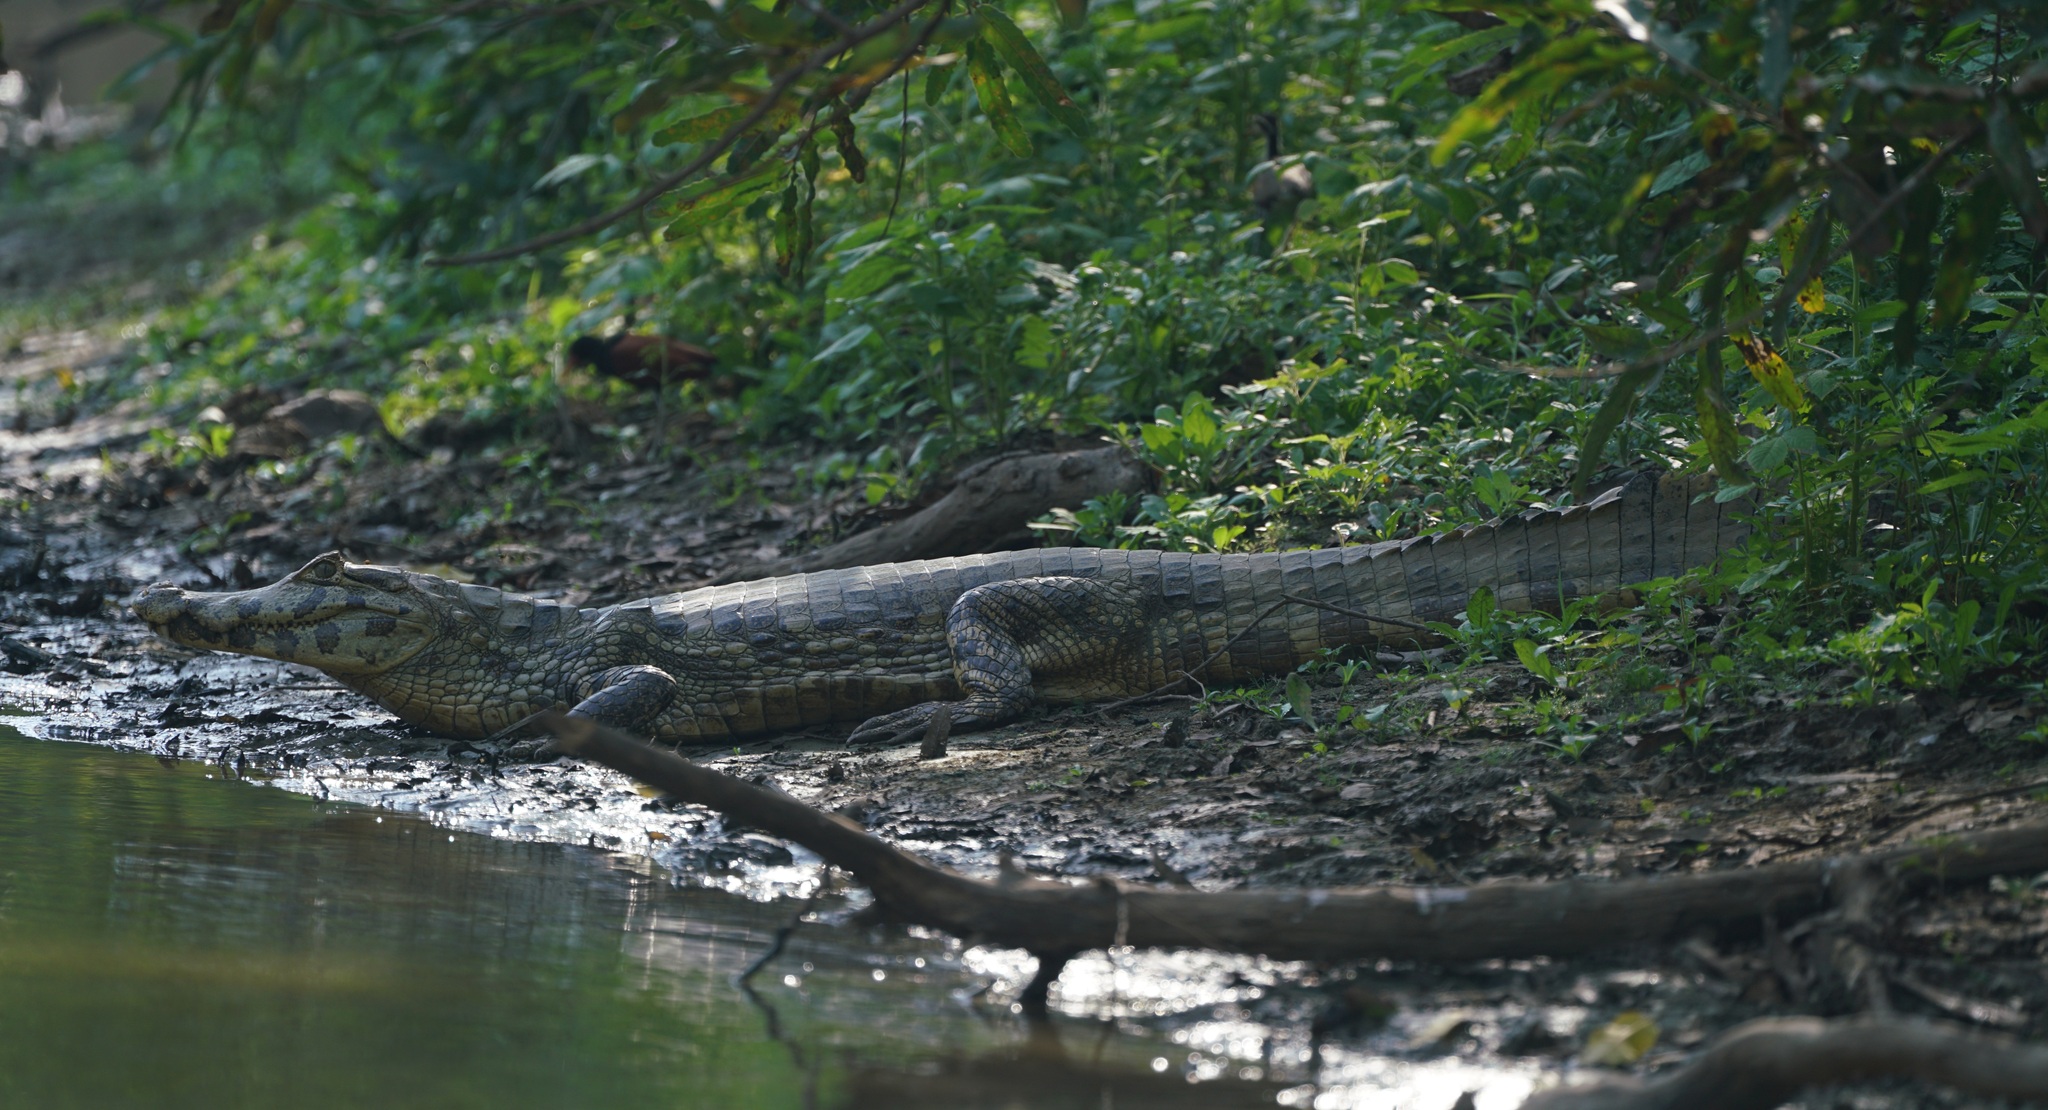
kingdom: Animalia
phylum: Chordata
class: Crocodylia
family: Alligatoridae
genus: Caiman
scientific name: Caiman yacare
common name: Yacare caiman
